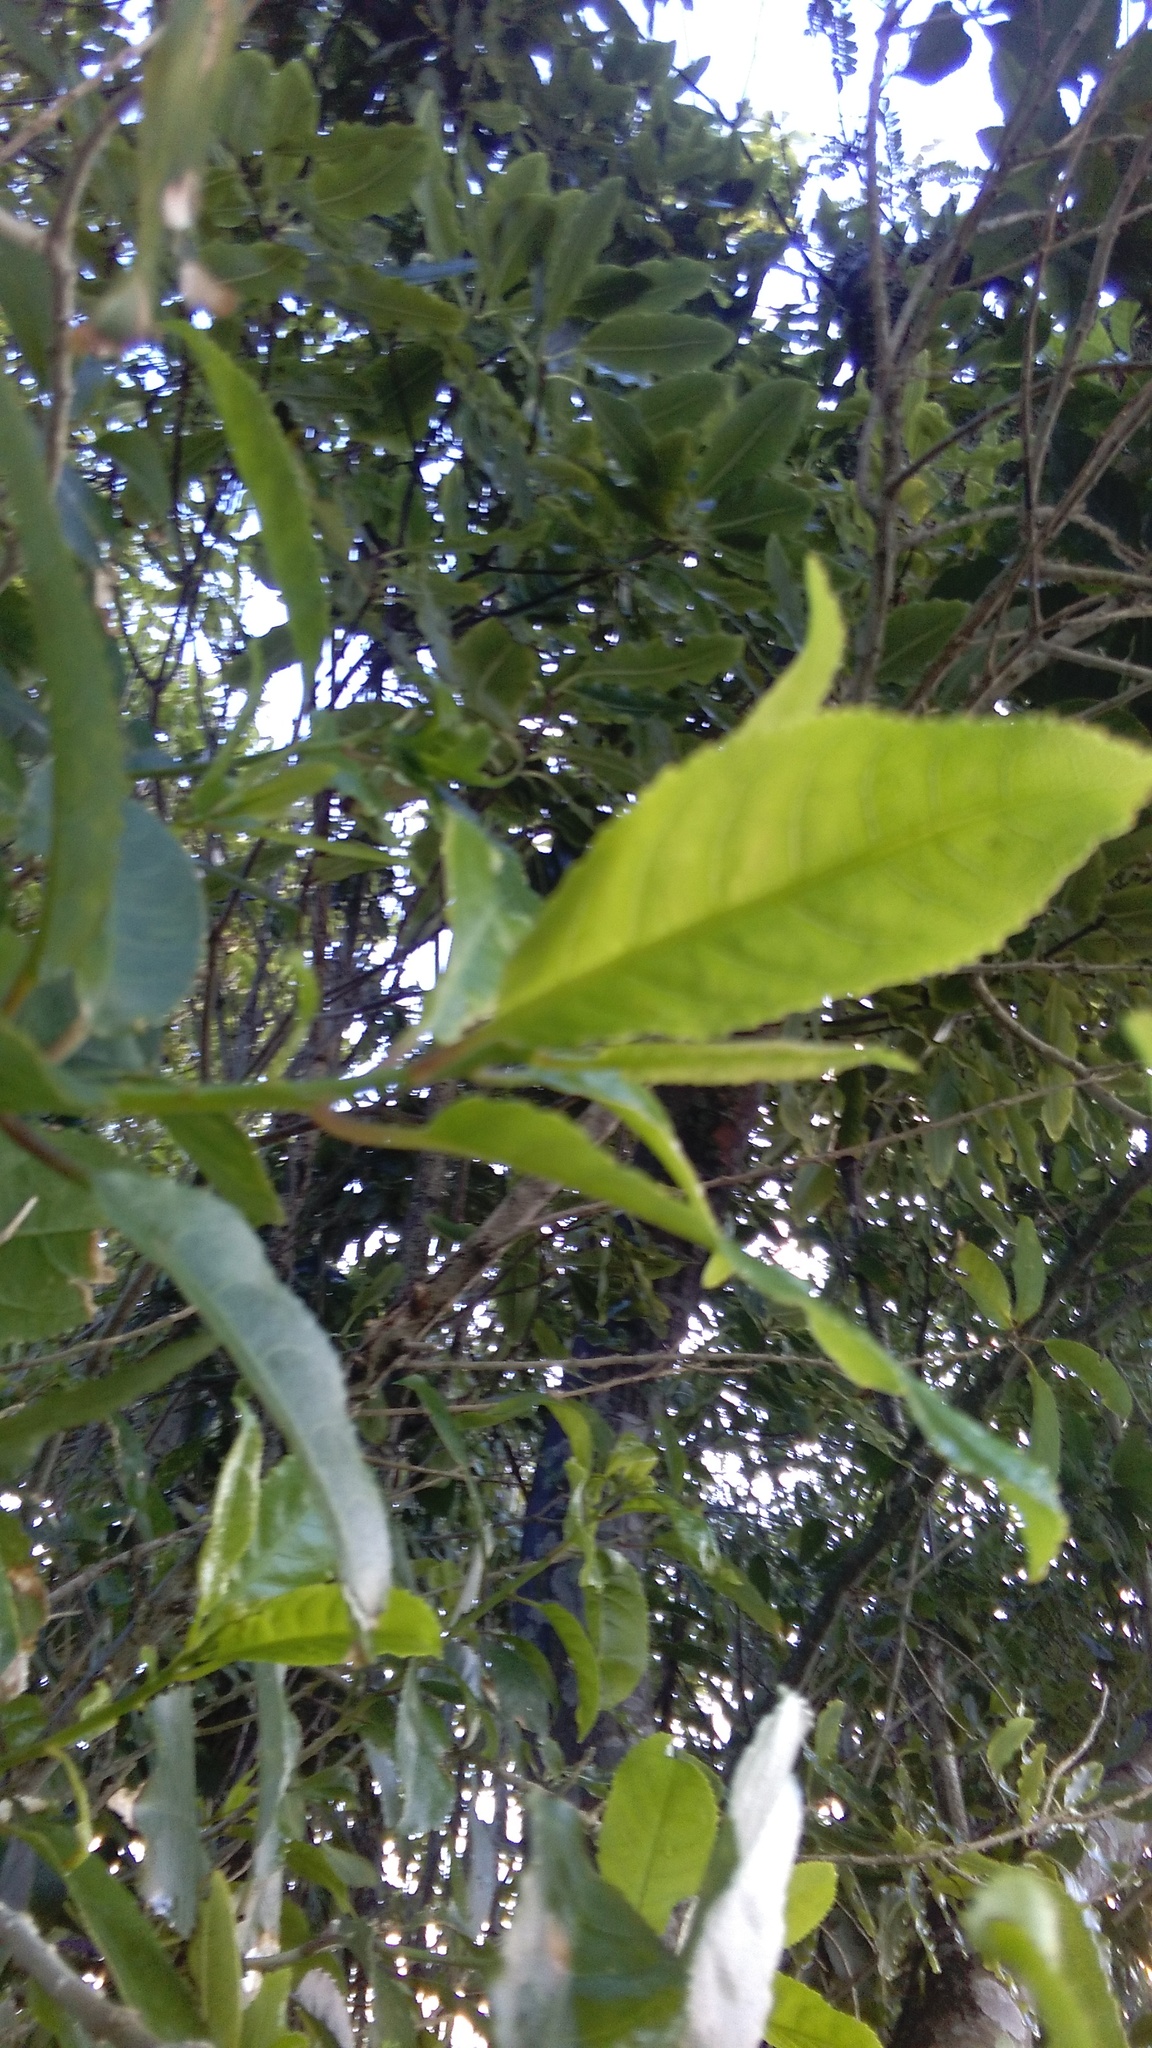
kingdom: Plantae
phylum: Tracheophyta
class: Magnoliopsida
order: Malpighiales
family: Violaceae
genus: Melicytus
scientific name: Melicytus ramiflorus
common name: Mahoe
